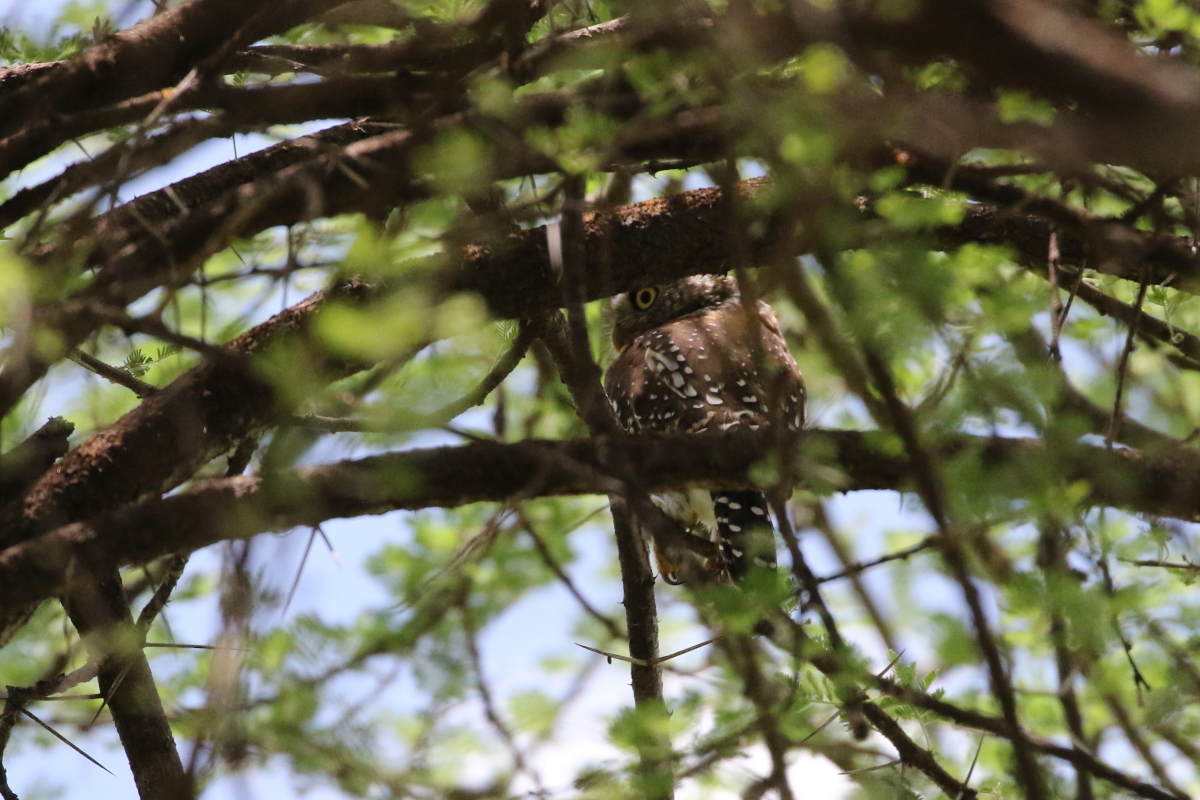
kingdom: Animalia
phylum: Chordata
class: Aves
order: Strigiformes
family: Strigidae
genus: Glaucidium
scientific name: Glaucidium perlatum
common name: Pearl-spotted owlet
